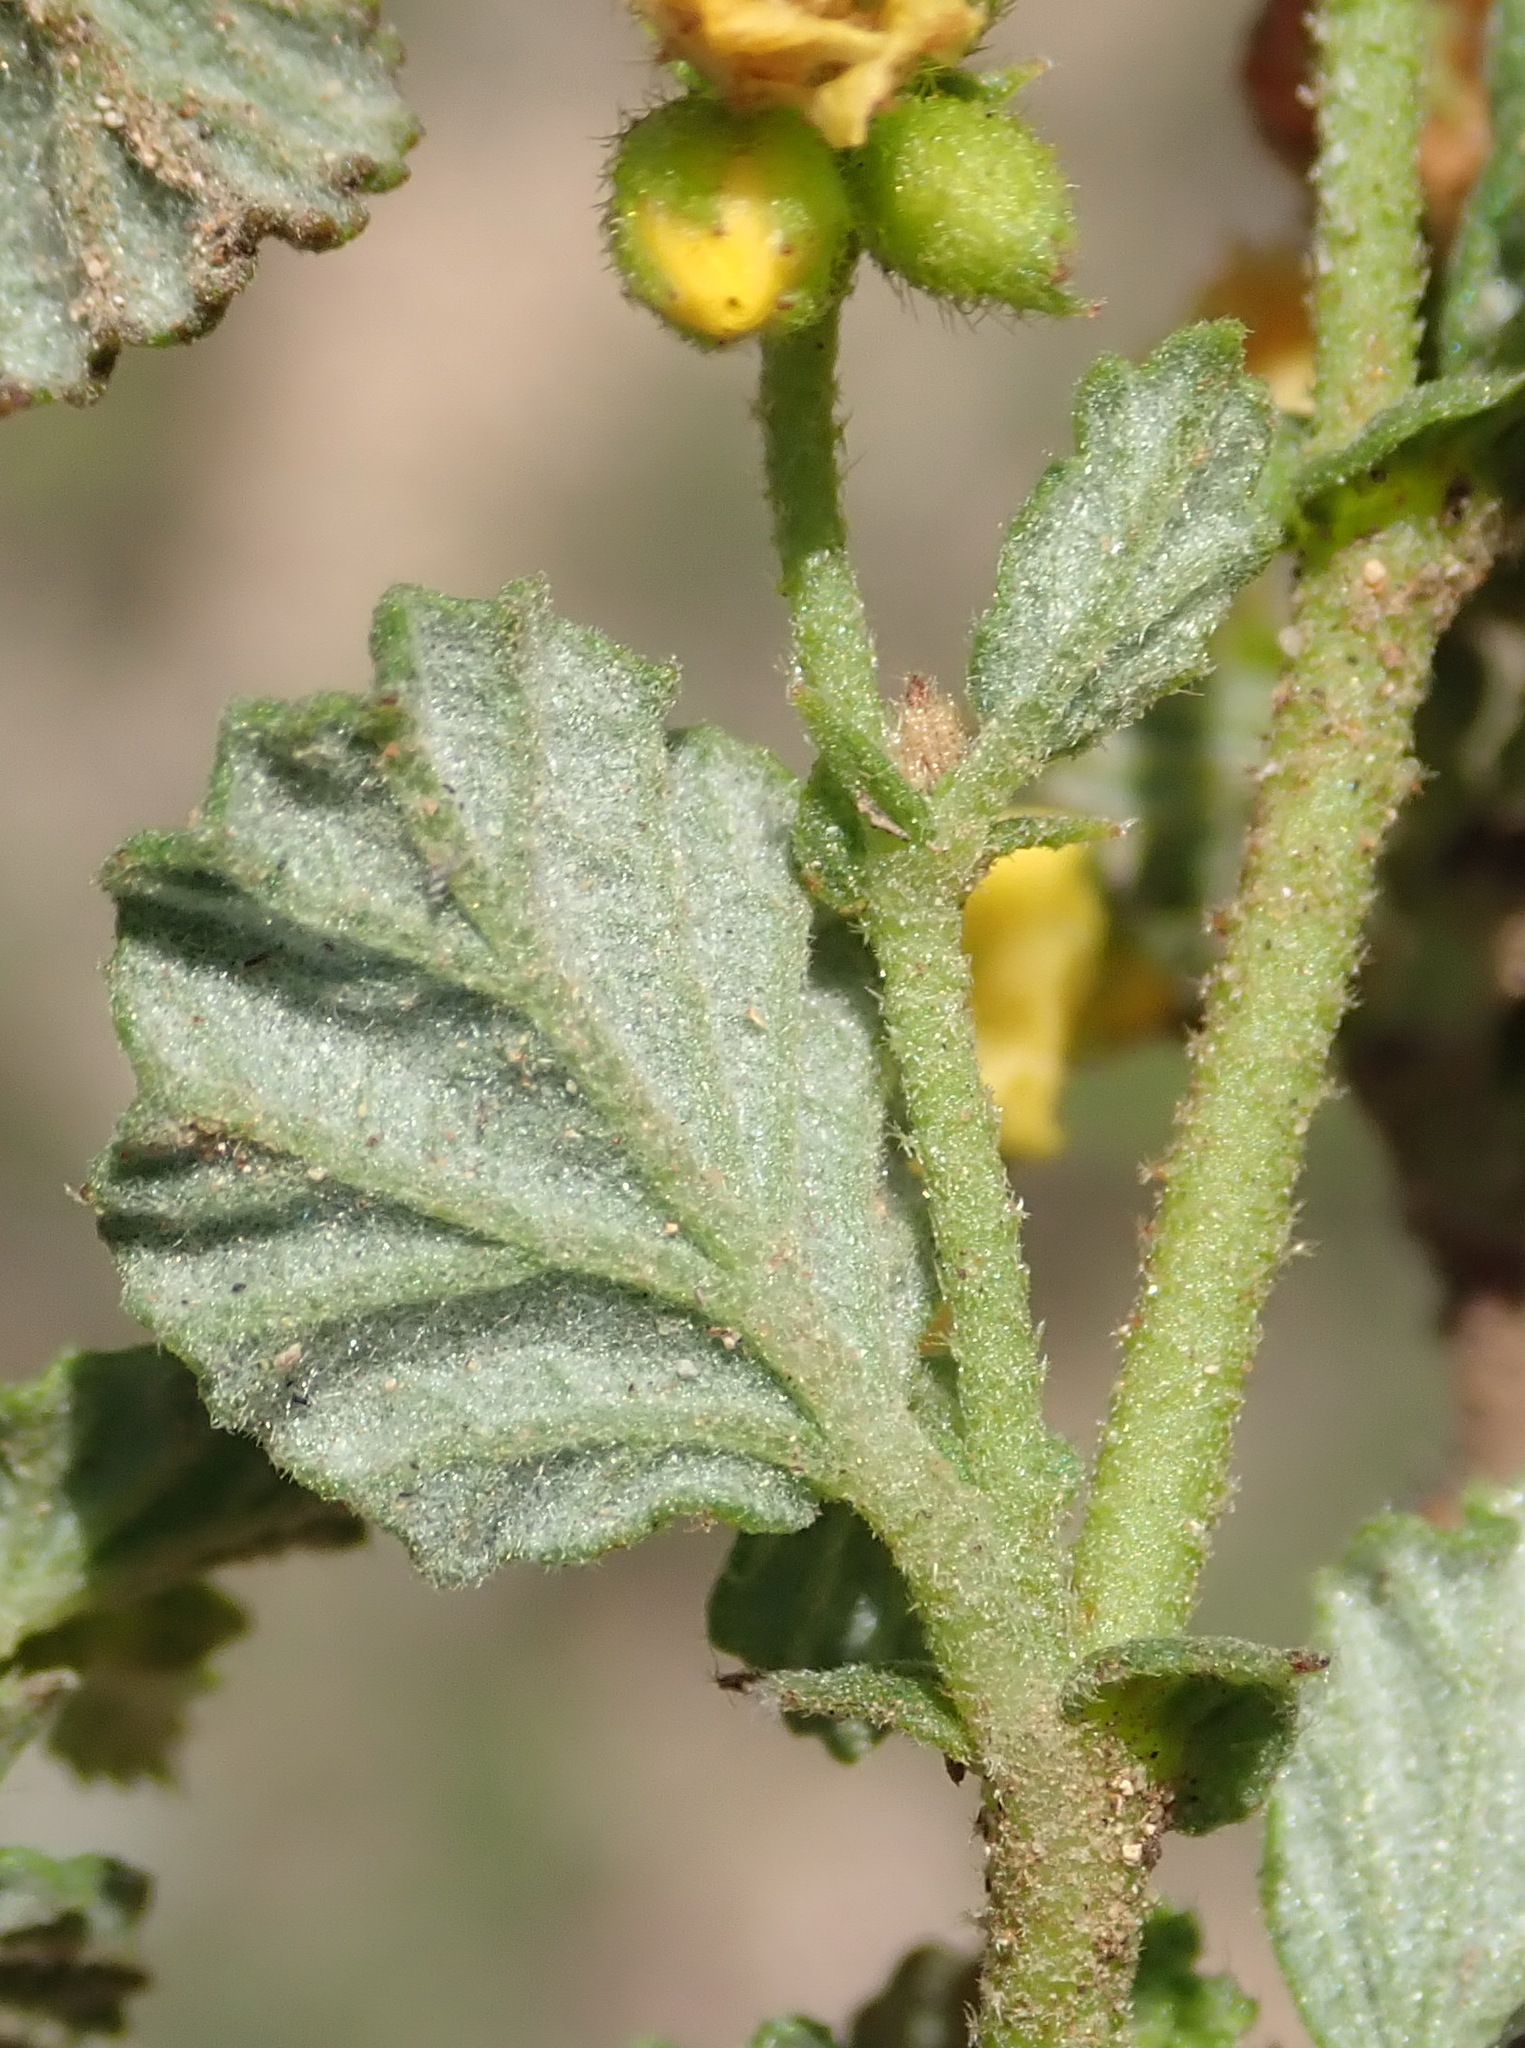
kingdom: Plantae
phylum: Tracheophyta
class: Magnoliopsida
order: Malvales
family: Malvaceae
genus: Hermannia
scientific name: Hermannia alnifolia
